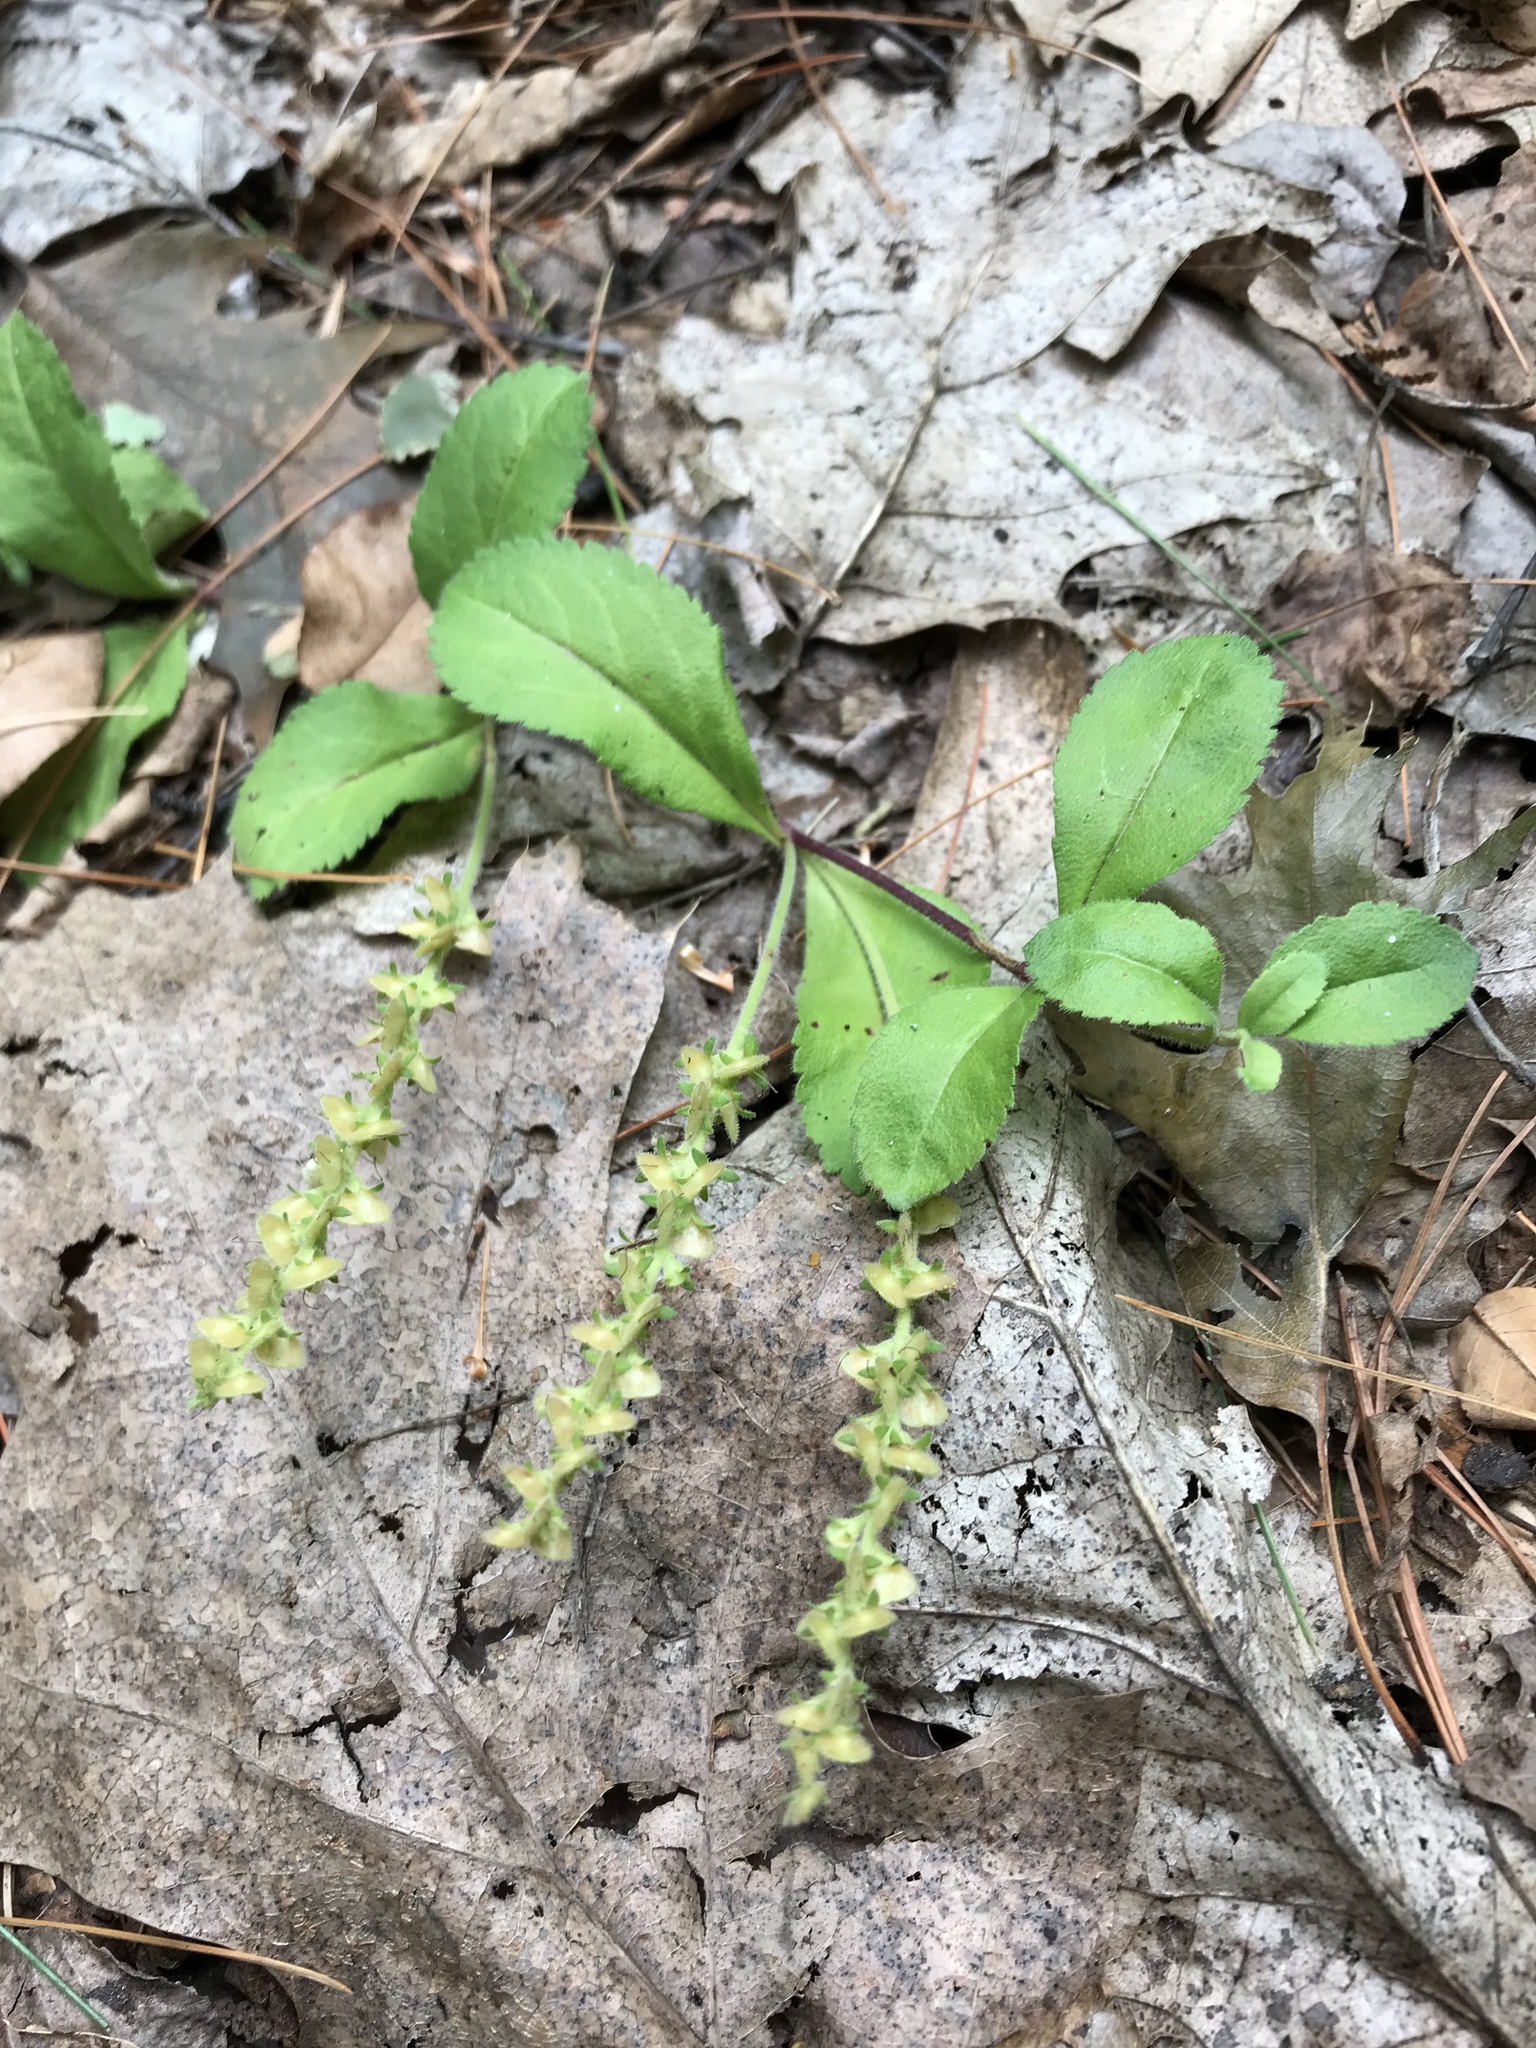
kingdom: Plantae
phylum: Tracheophyta
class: Magnoliopsida
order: Lamiales
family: Plantaginaceae
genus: Veronica
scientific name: Veronica officinalis
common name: Common speedwell
